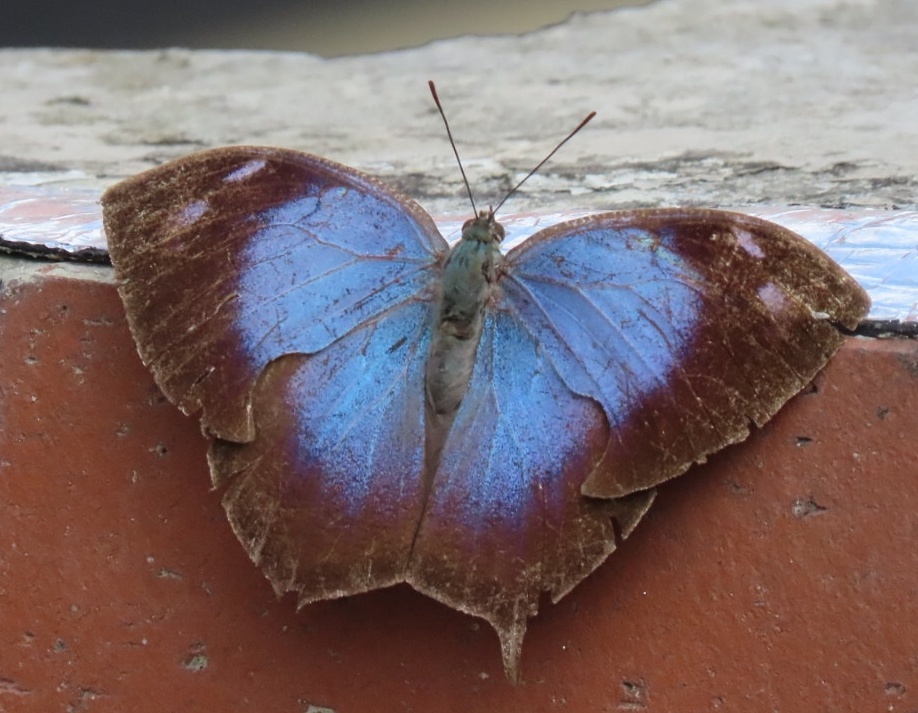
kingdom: Animalia
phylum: Arthropoda
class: Insecta
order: Lepidoptera
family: Nymphalidae
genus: Memphis
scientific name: Memphis
